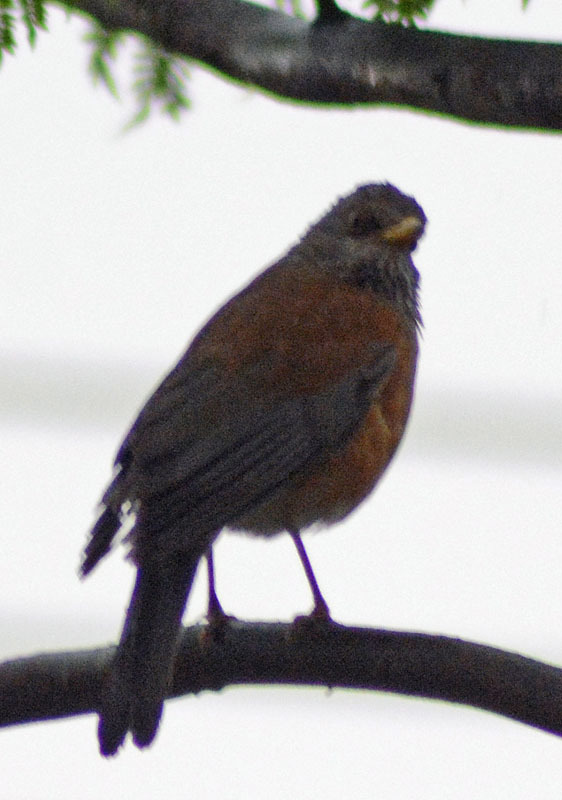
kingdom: Animalia
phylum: Chordata
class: Aves
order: Passeriformes
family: Turdidae
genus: Turdus
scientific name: Turdus rufopalliatus
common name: Rufous-backed robin
